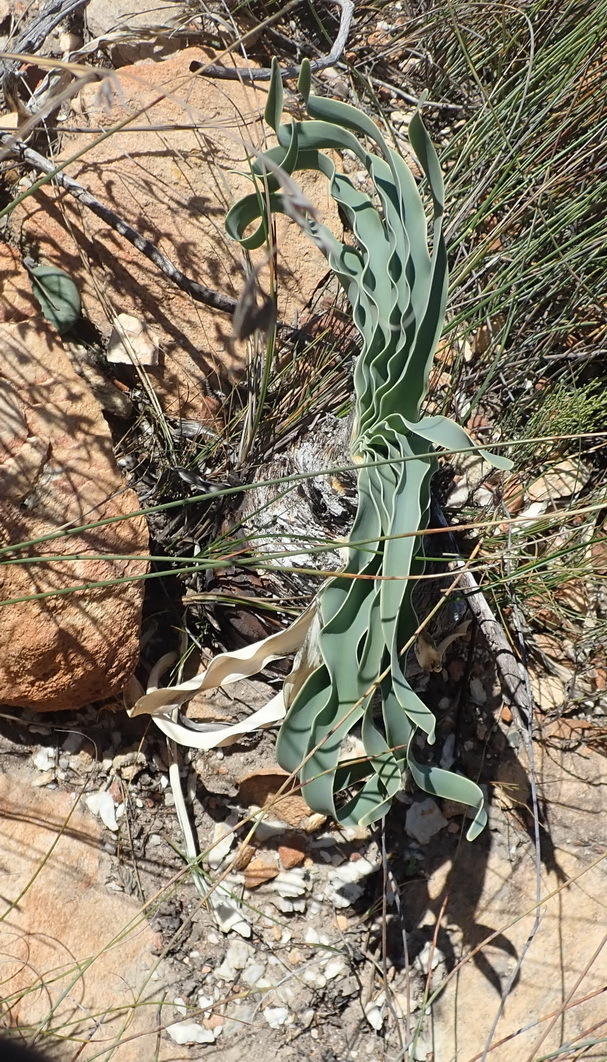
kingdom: Plantae
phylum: Tracheophyta
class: Liliopsida
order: Asparagales
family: Amaryllidaceae
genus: Boophone
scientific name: Boophone disticha
